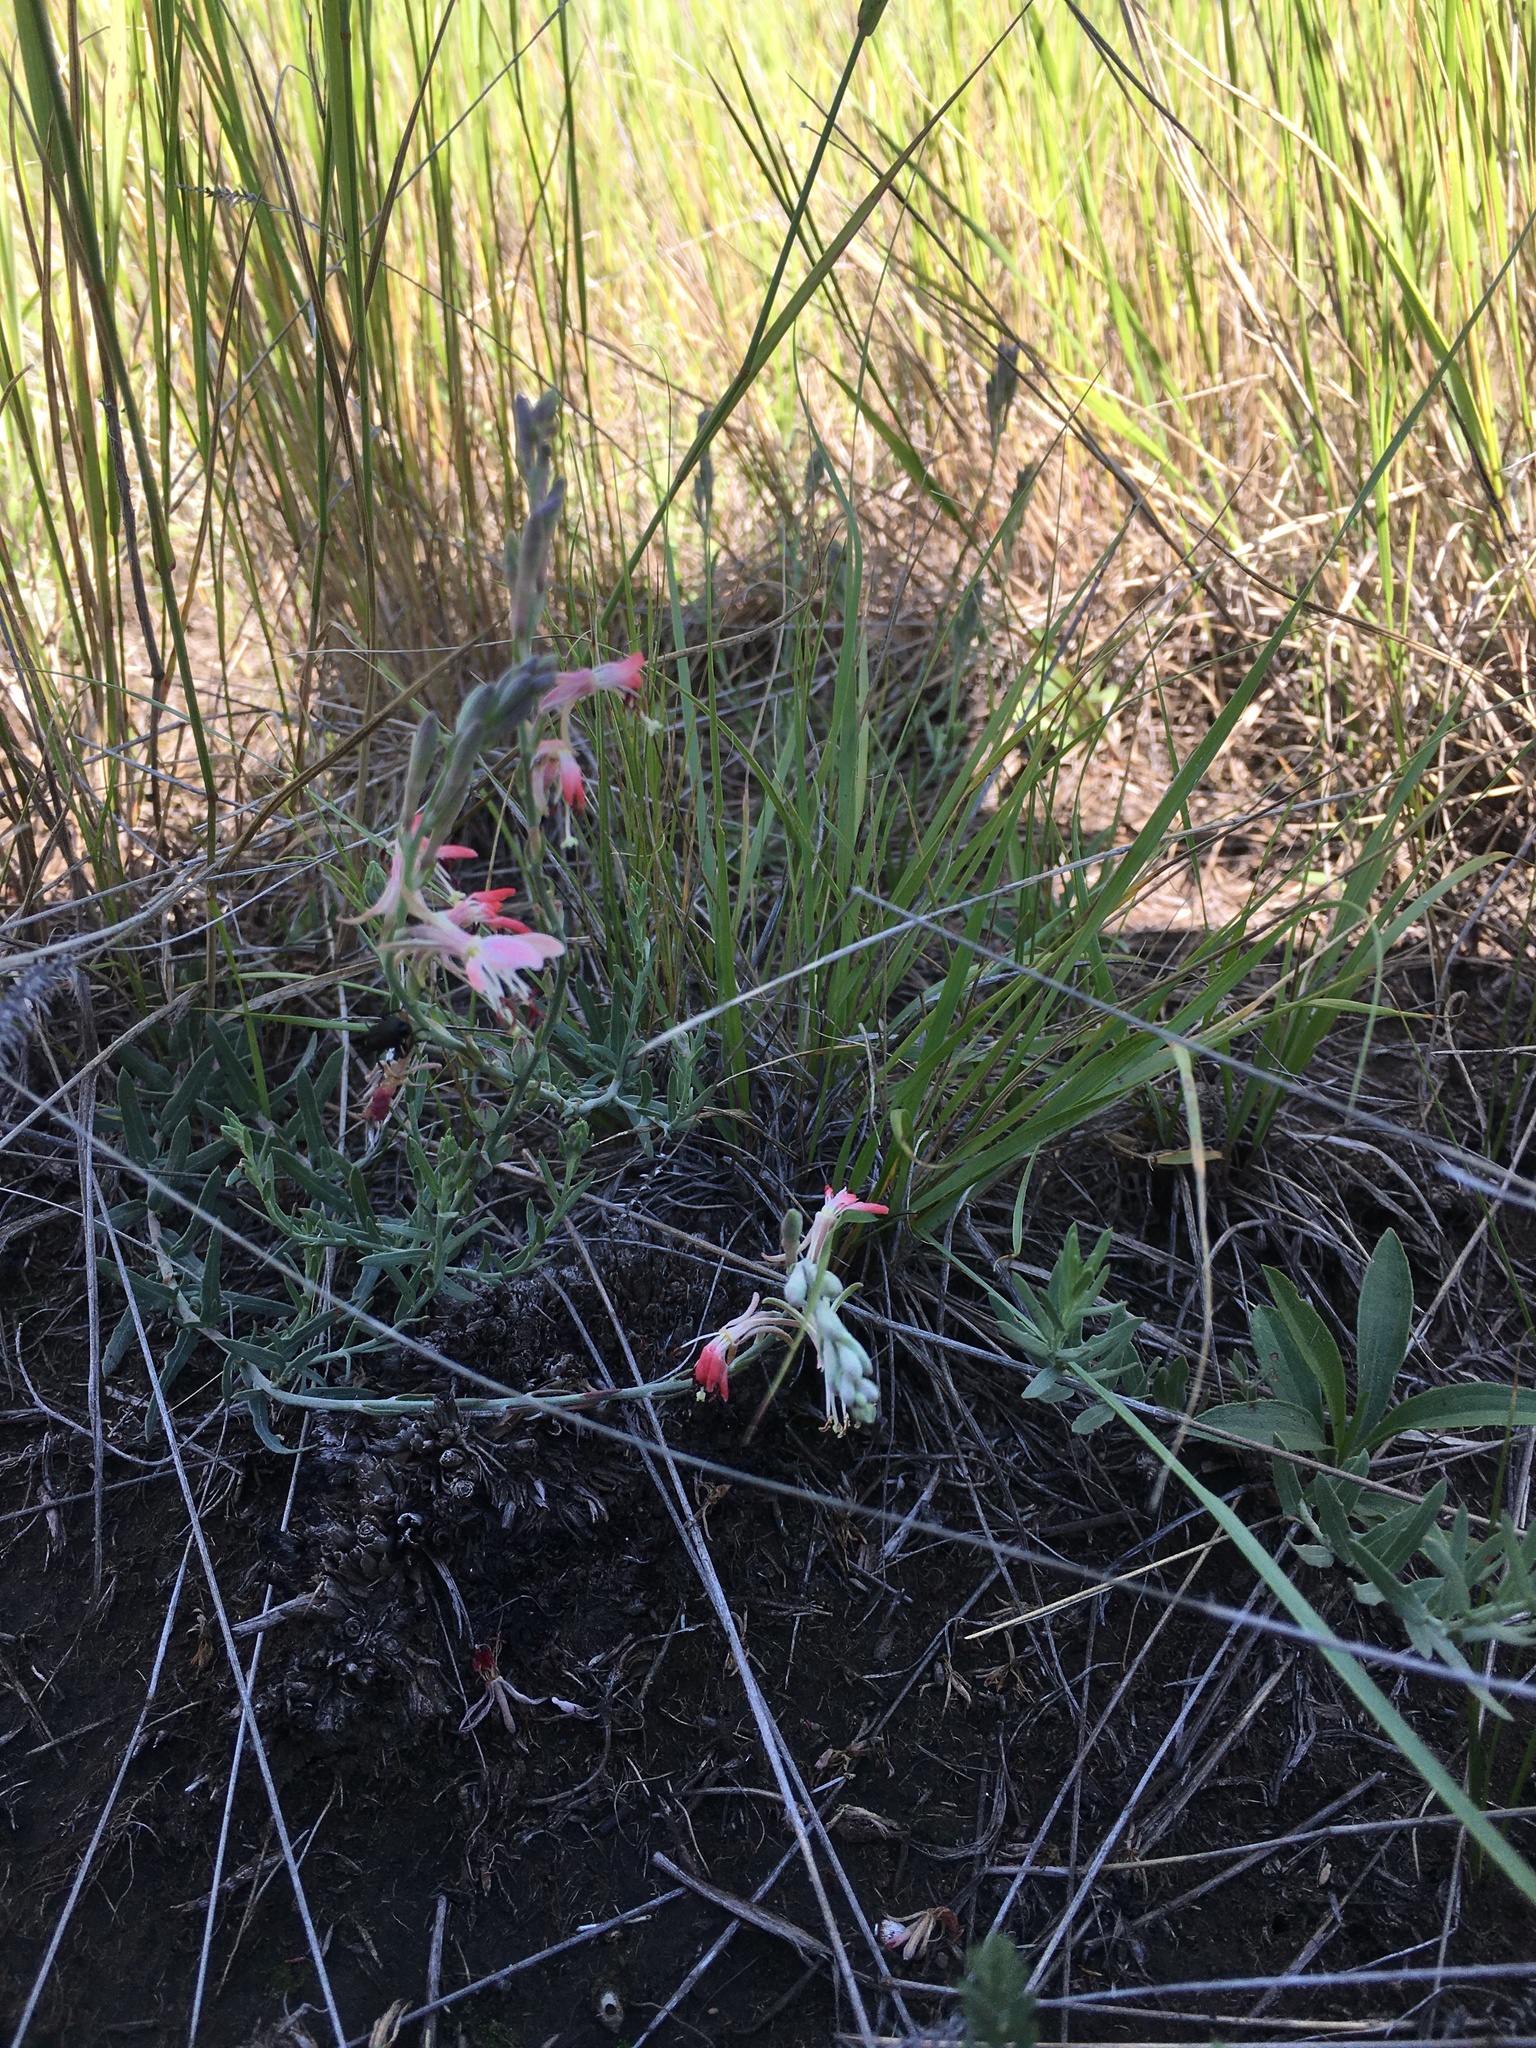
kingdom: Plantae
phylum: Tracheophyta
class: Magnoliopsida
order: Myrtales
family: Onagraceae
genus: Oenothera
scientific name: Oenothera suffrutescens
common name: Scarlet beeblossom
